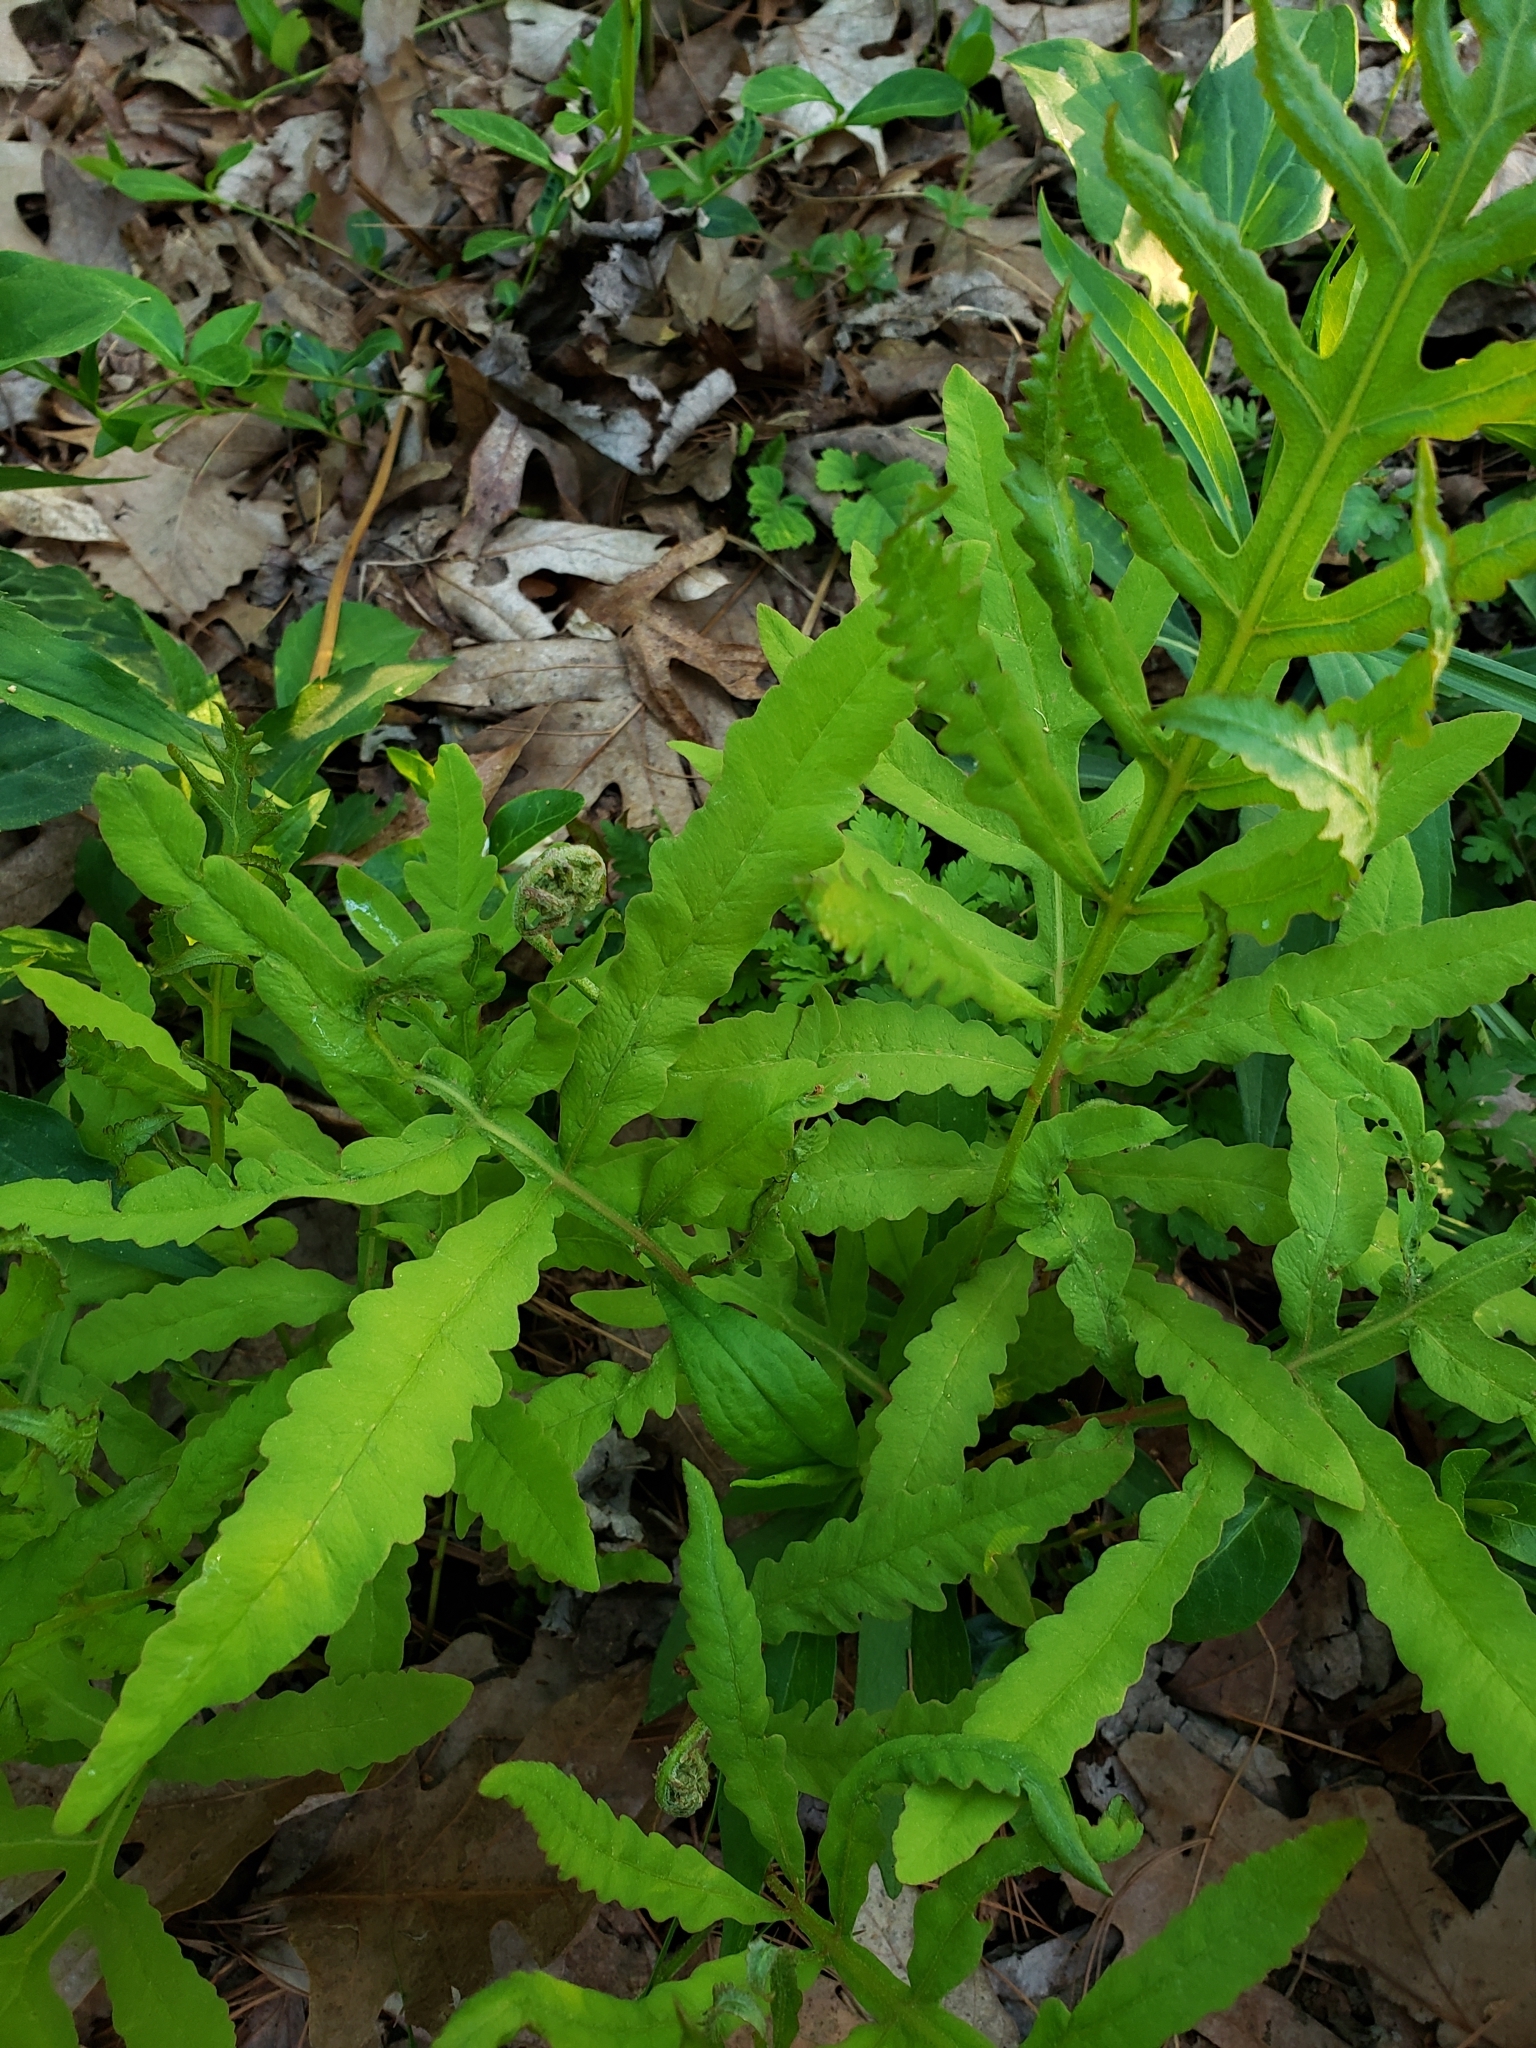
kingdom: Plantae
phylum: Tracheophyta
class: Polypodiopsida
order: Polypodiales
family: Onocleaceae
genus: Onoclea
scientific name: Onoclea sensibilis
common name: Sensitive fern
